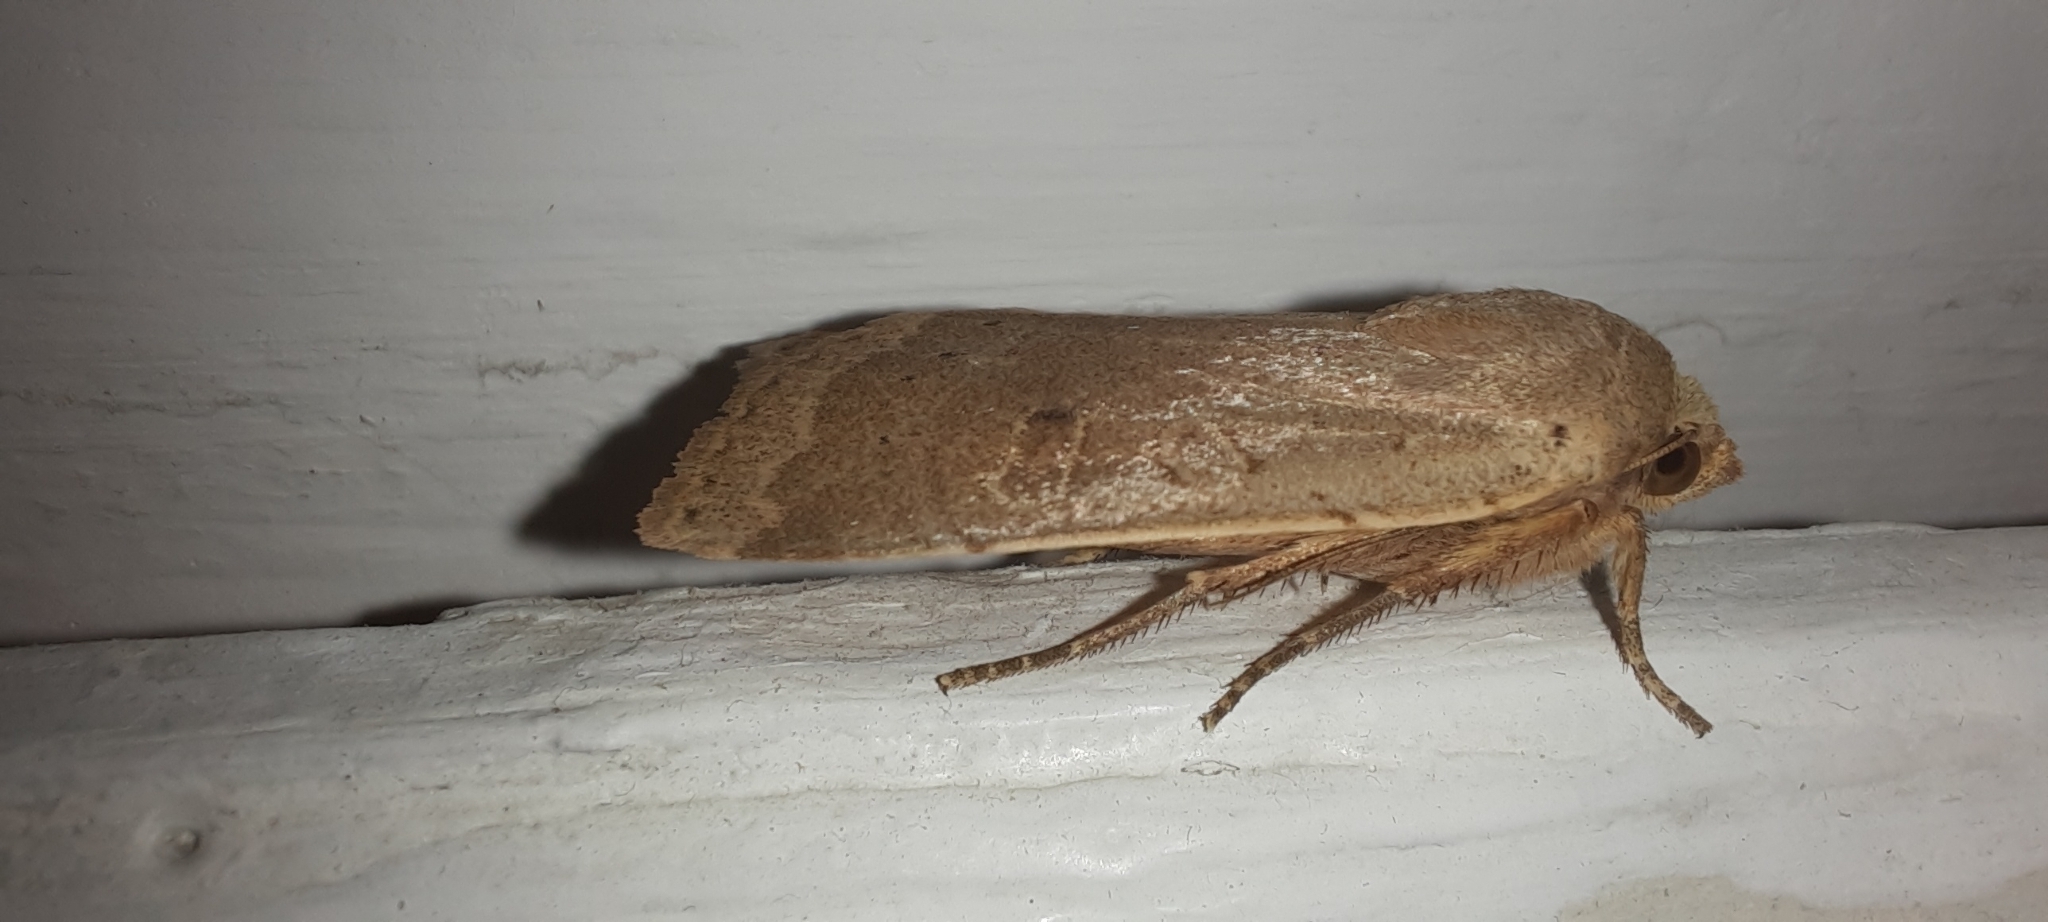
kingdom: Animalia
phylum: Arthropoda
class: Insecta
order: Lepidoptera
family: Noctuidae
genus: Noctua
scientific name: Noctua comes
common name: Lesser yellow underwing
